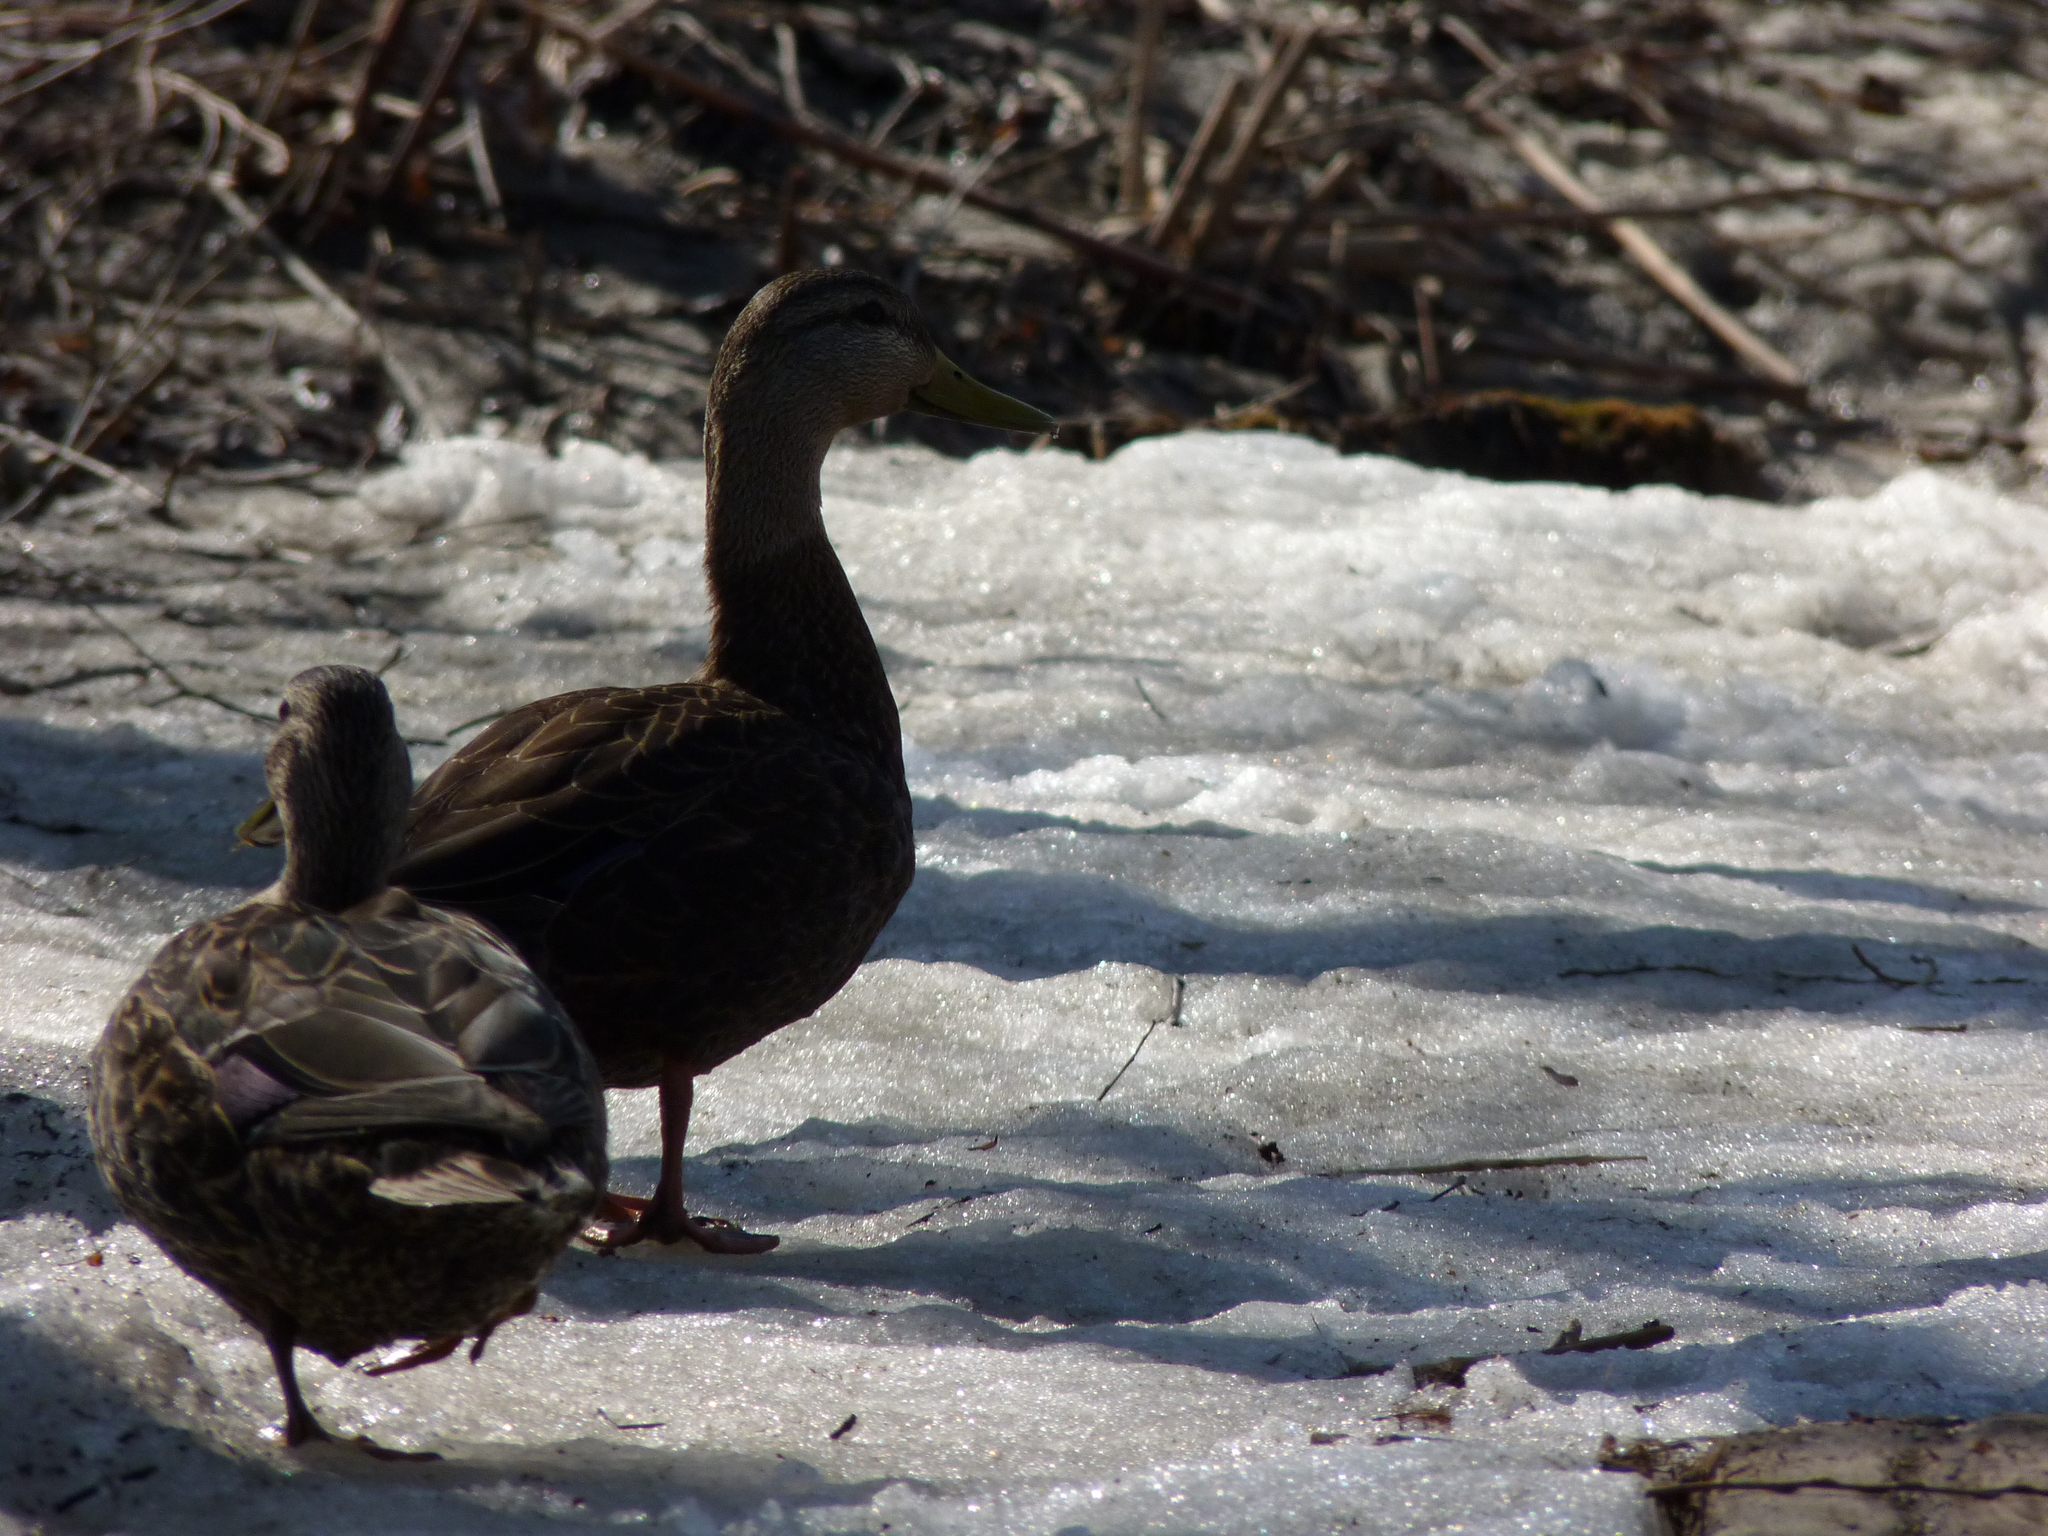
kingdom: Animalia
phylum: Chordata
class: Aves
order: Anseriformes
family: Anatidae
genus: Anas
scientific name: Anas rubripes
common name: American black duck
